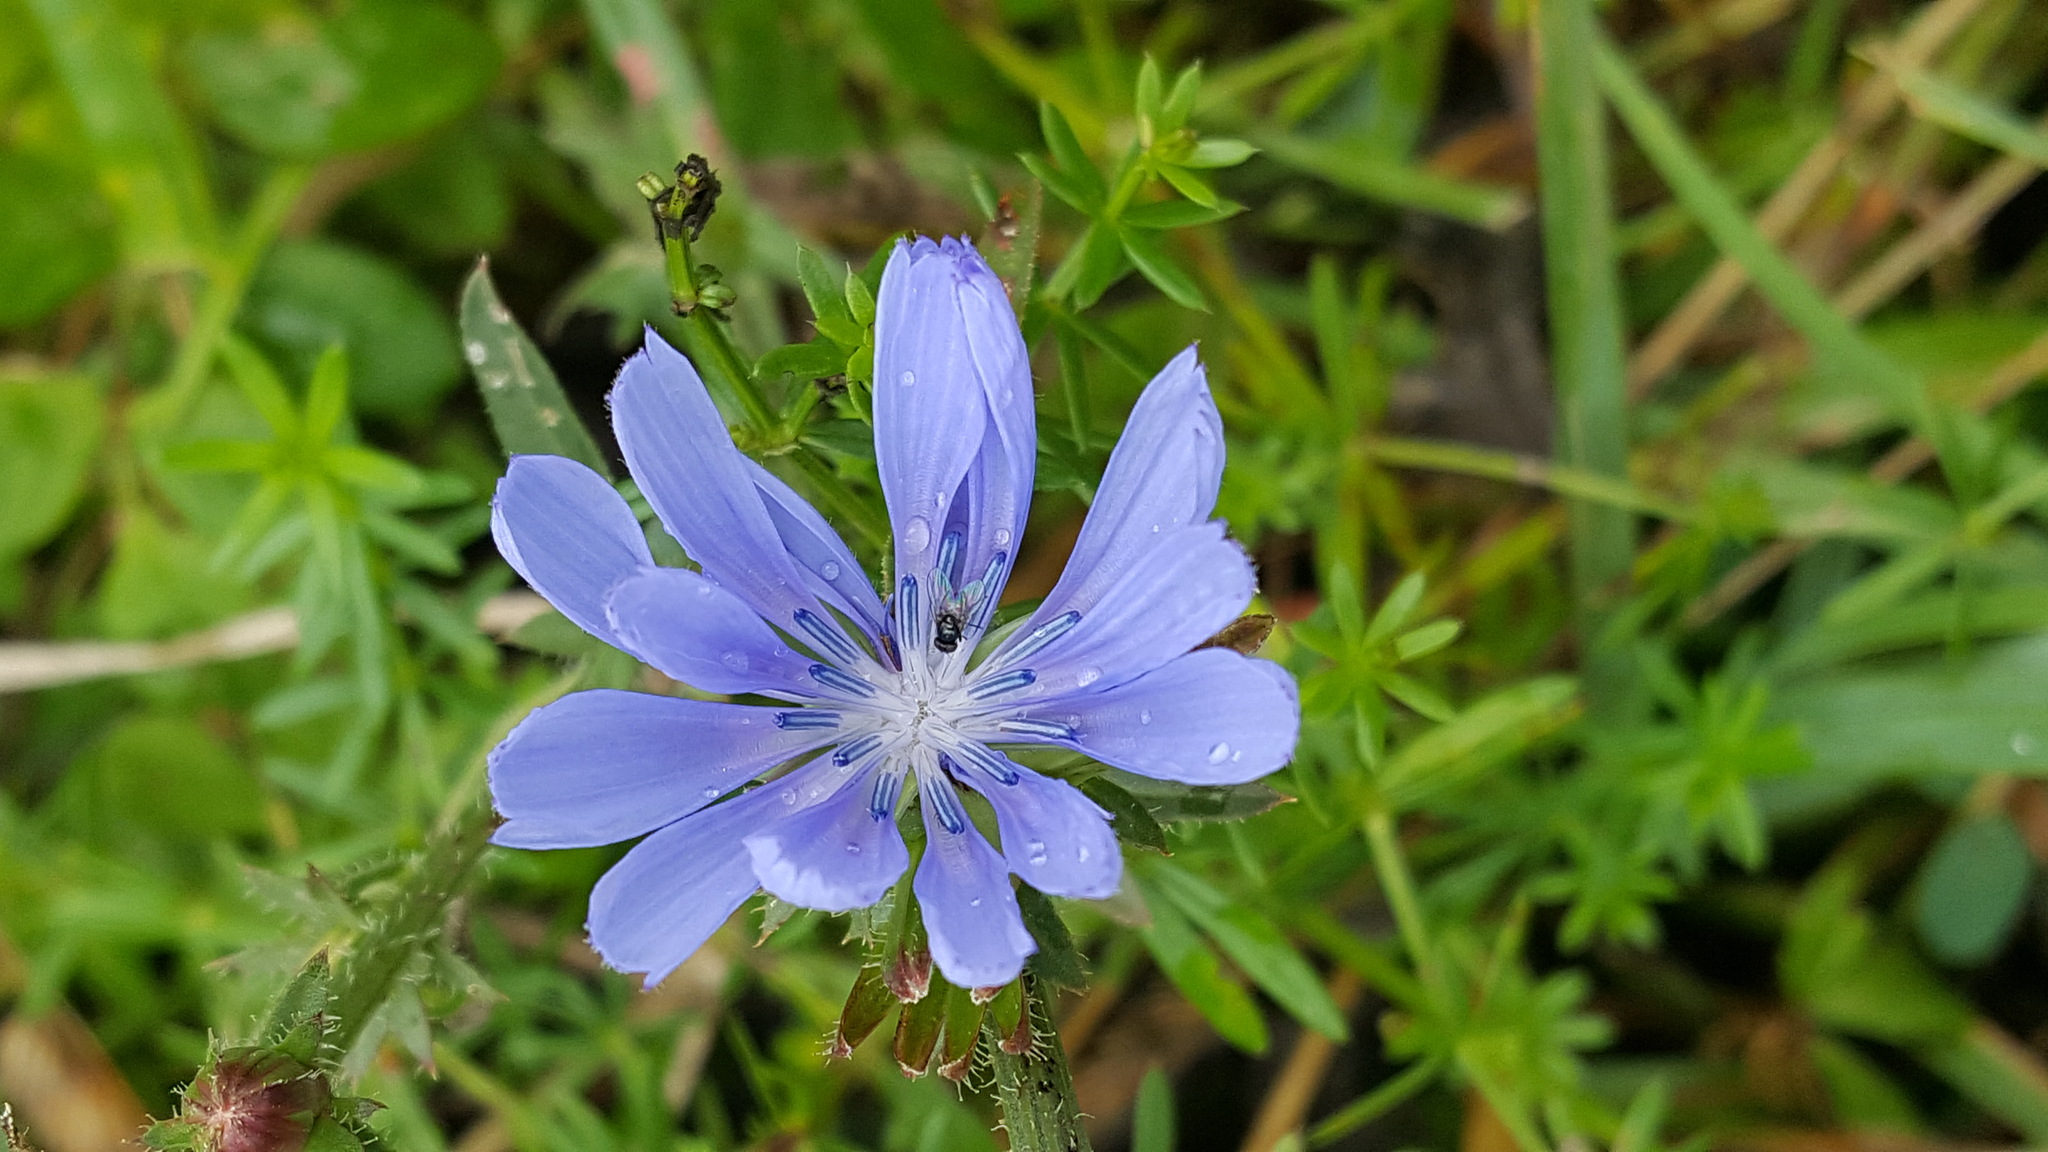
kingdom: Plantae
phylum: Tracheophyta
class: Magnoliopsida
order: Asterales
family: Asteraceae
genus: Cichorium
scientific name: Cichorium intybus
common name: Chicory
